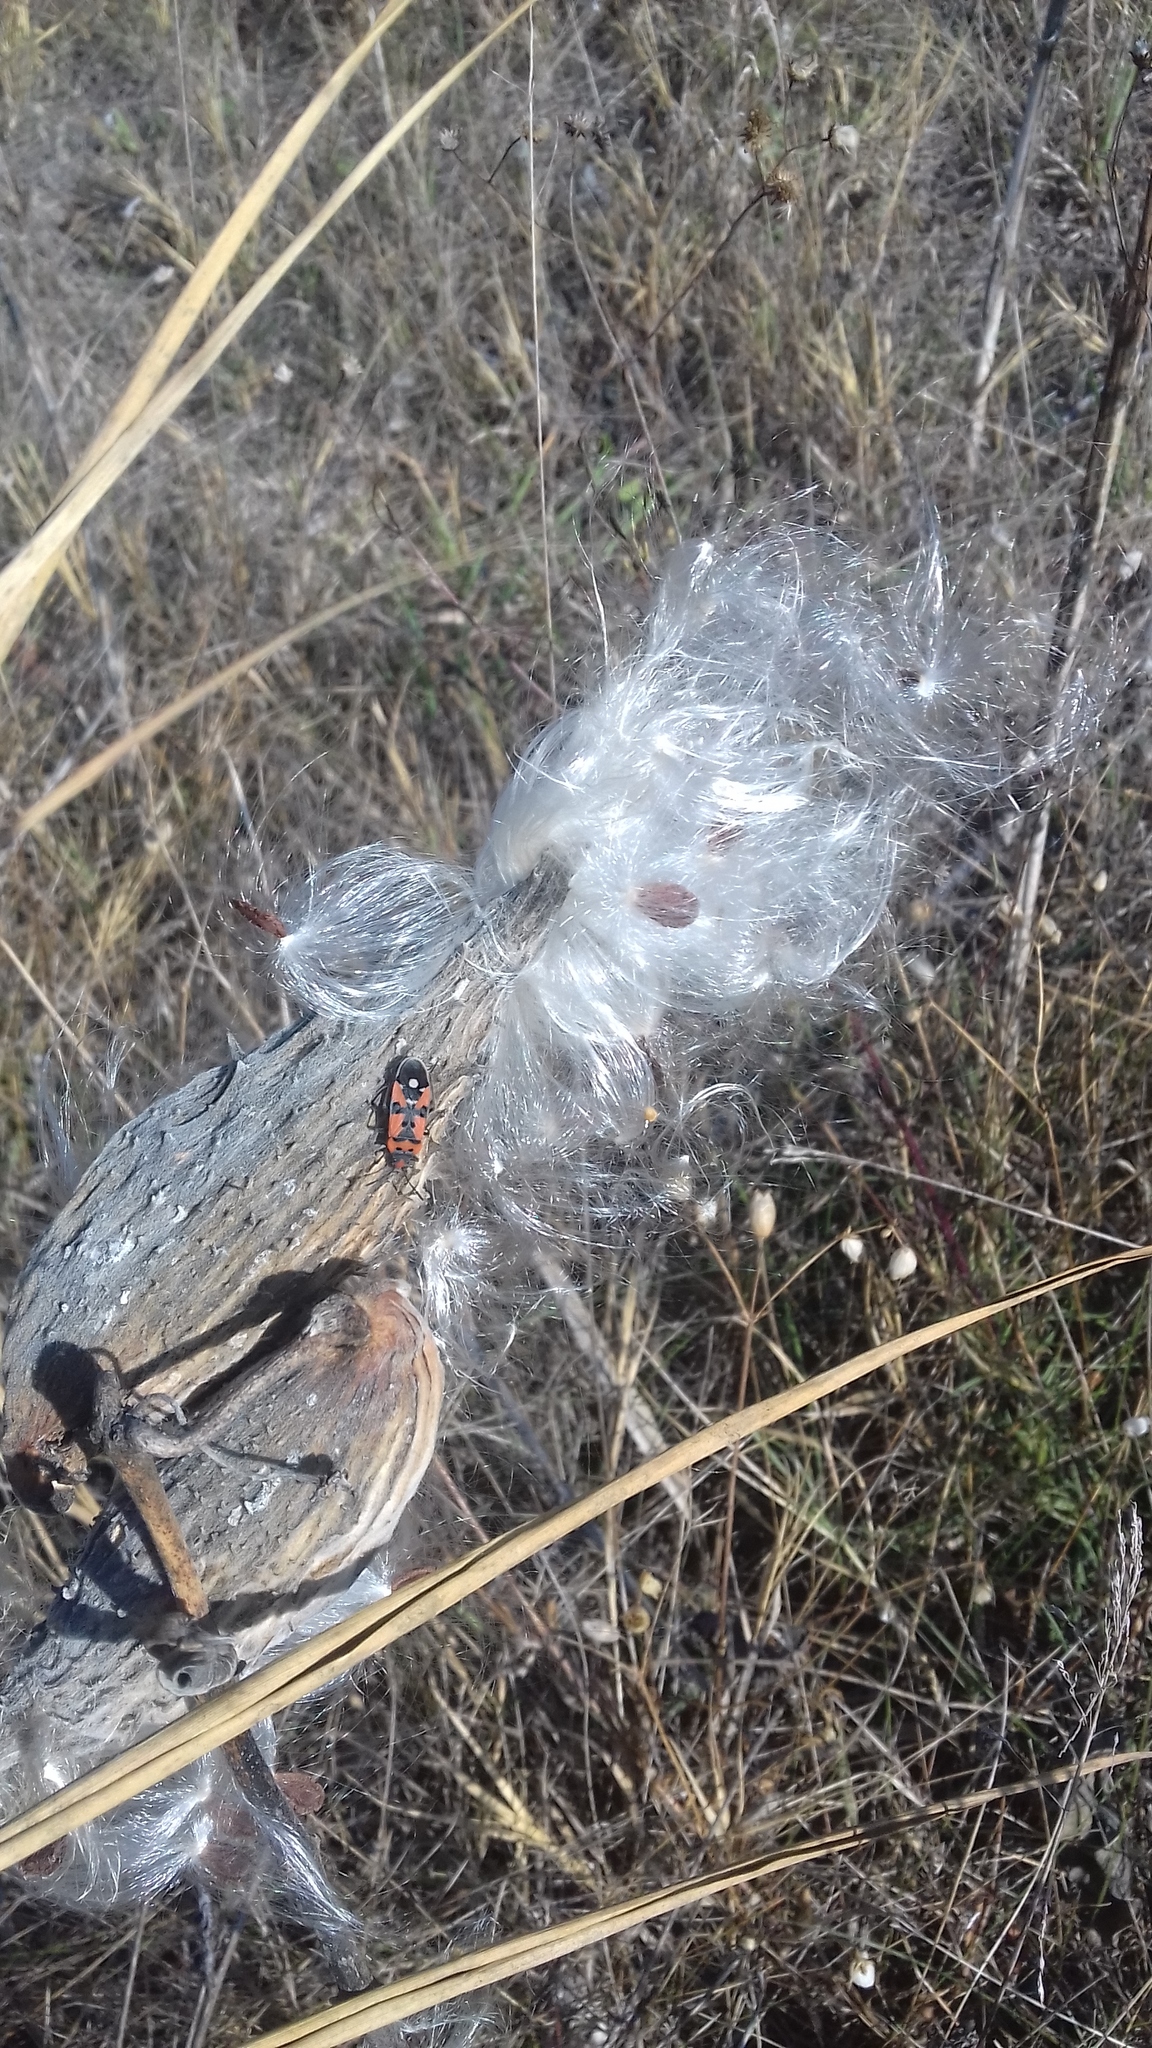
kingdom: Plantae
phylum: Tracheophyta
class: Magnoliopsida
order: Gentianales
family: Apocynaceae
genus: Asclepias
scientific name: Asclepias syriaca
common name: Common milkweed
